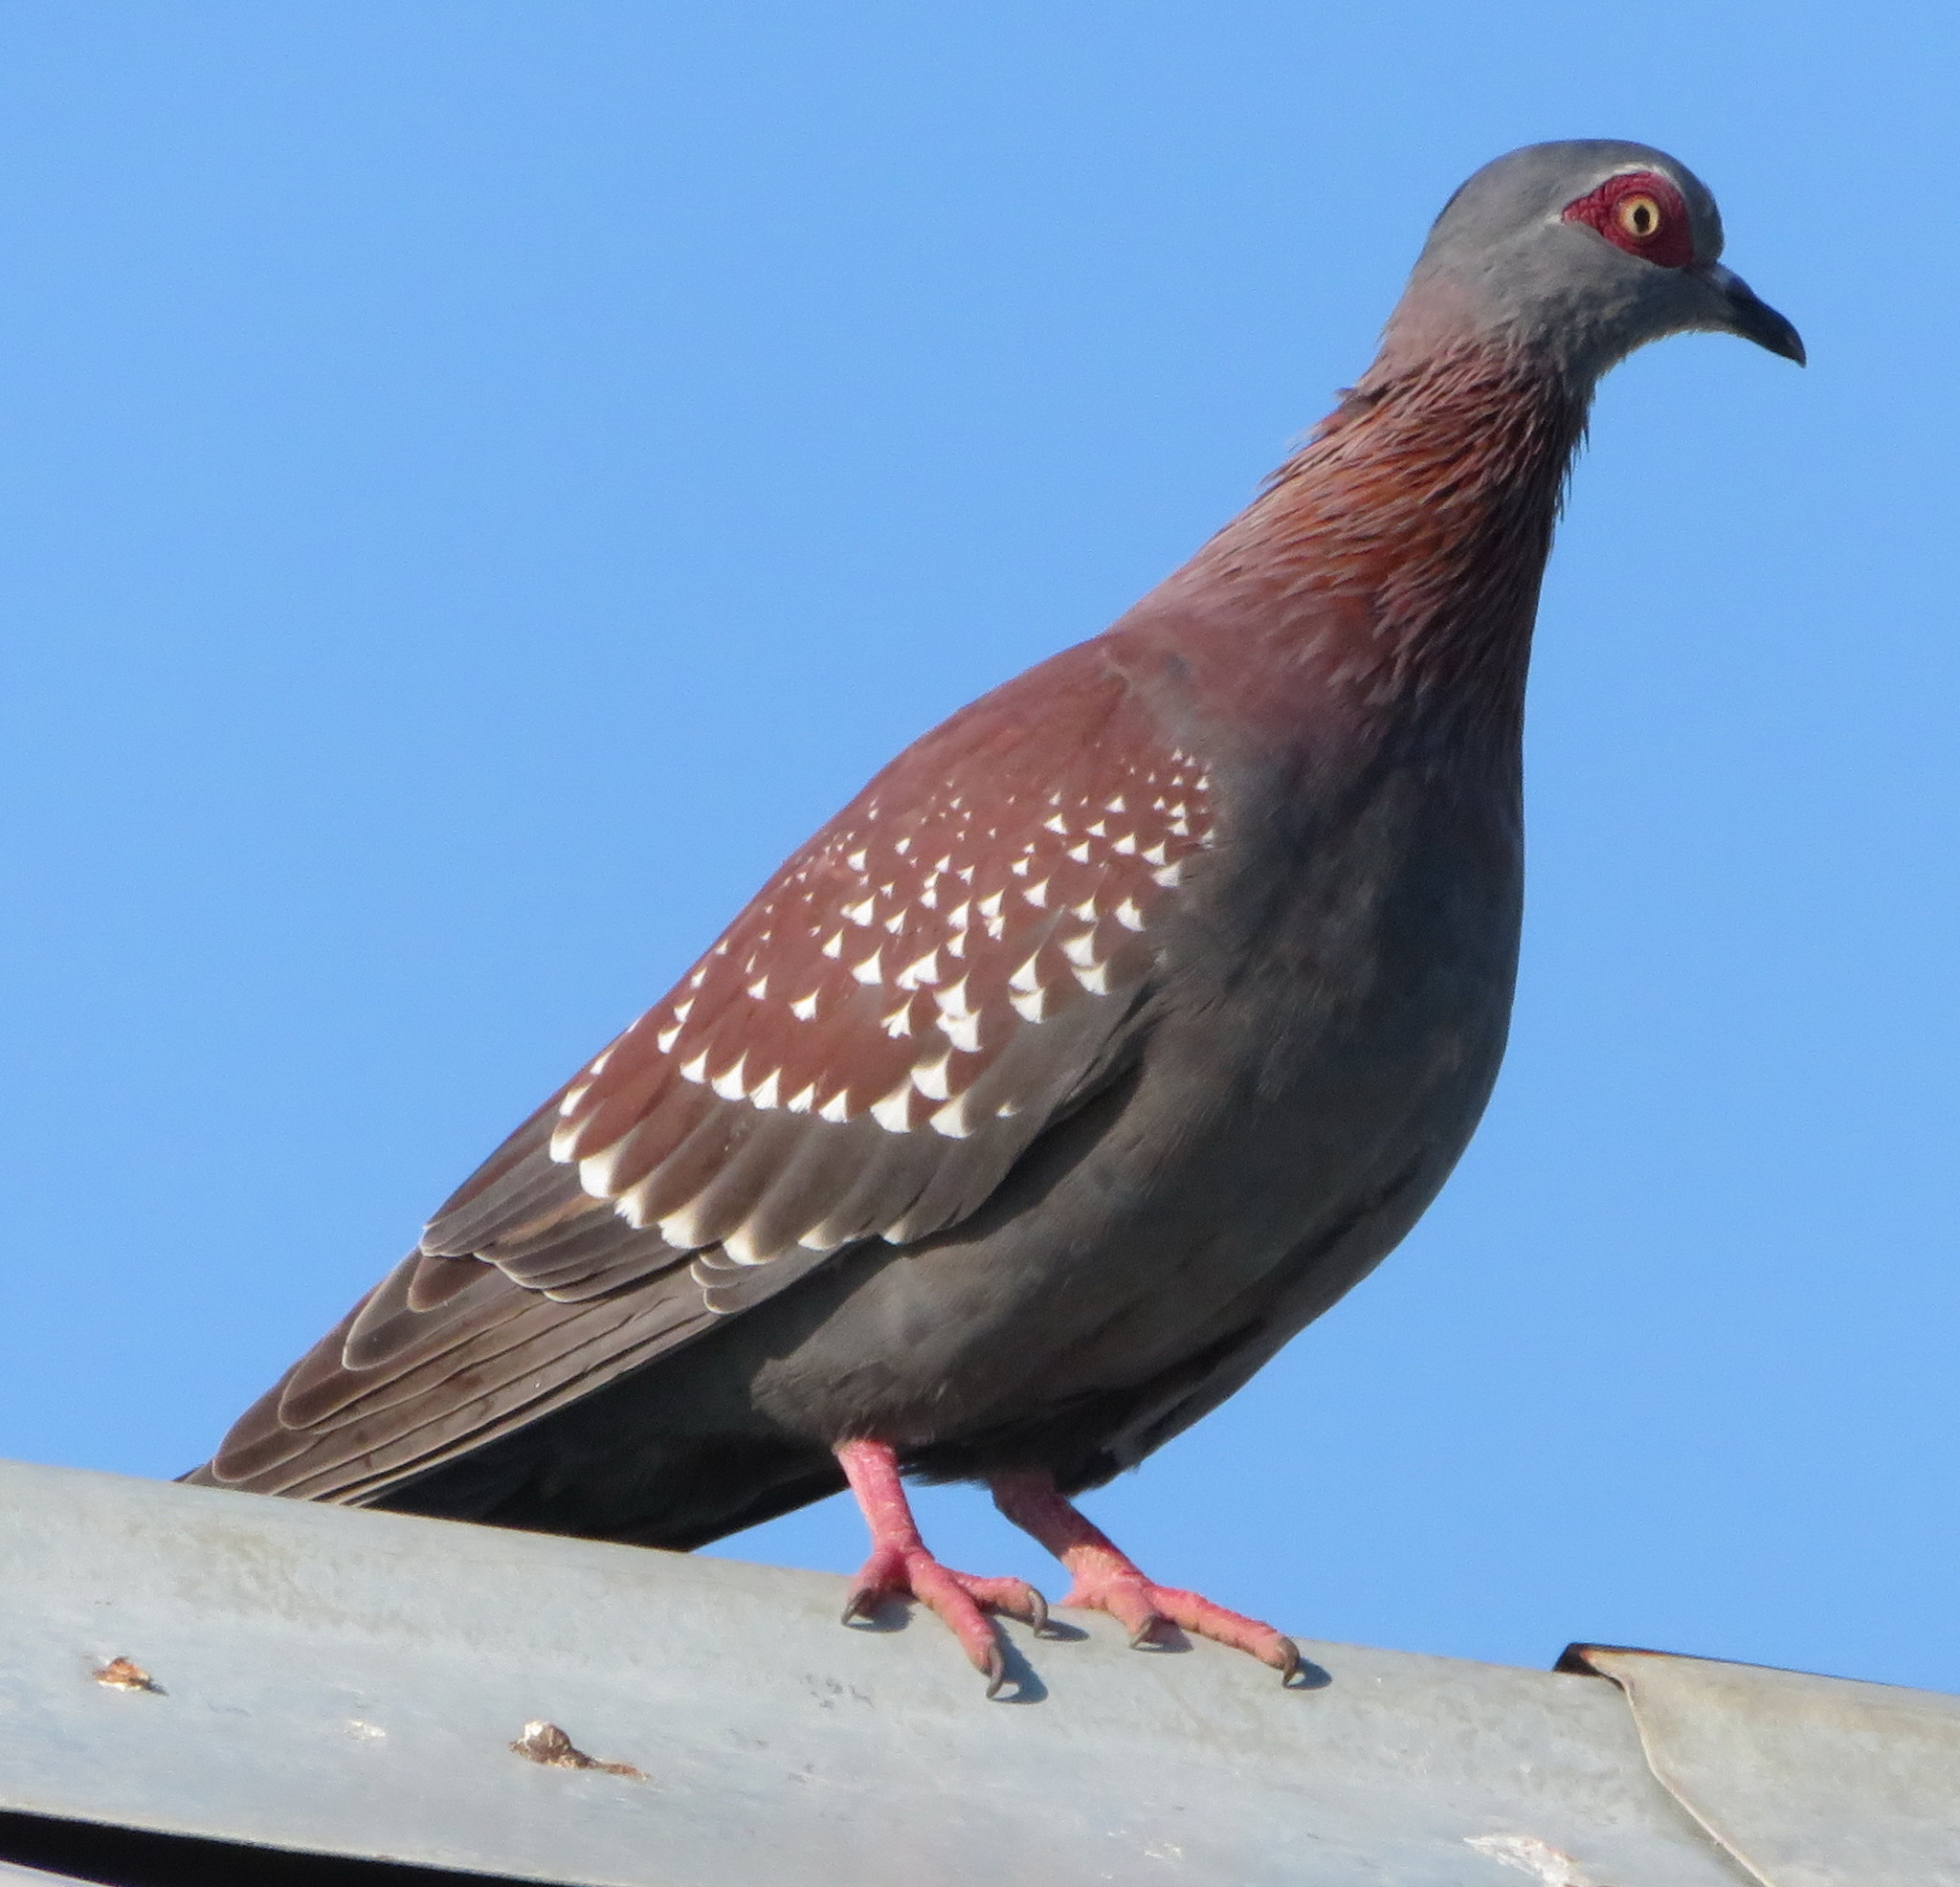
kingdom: Animalia
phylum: Chordata
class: Aves
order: Columbiformes
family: Columbidae
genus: Columba
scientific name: Columba guinea
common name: Speckled pigeon
